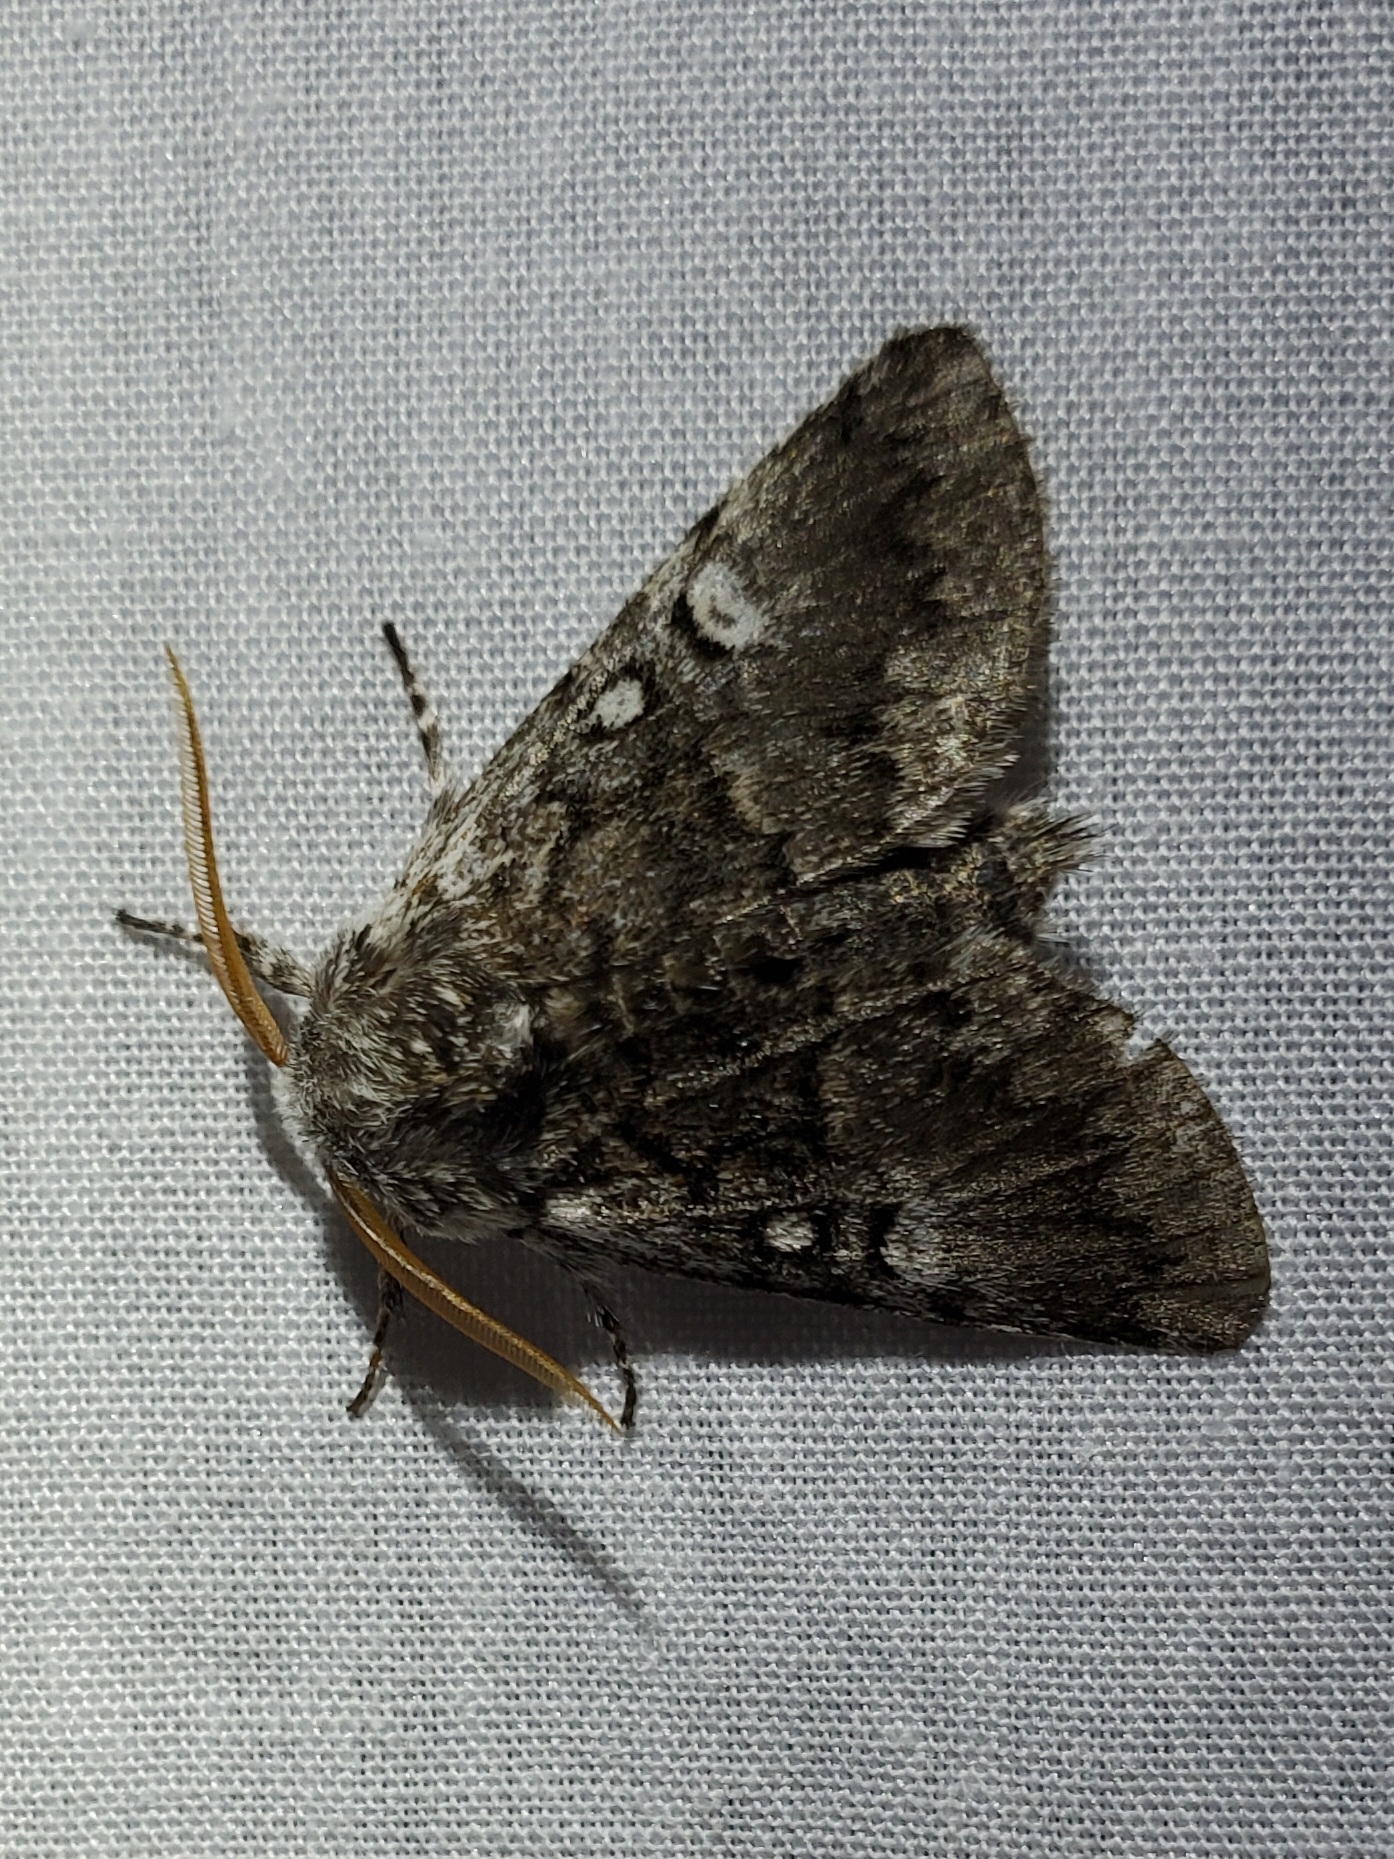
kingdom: Animalia
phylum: Arthropoda
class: Insecta
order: Lepidoptera
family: Noctuidae
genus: Colocasia
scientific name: Colocasia propinquilinea
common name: Close-banded demas
